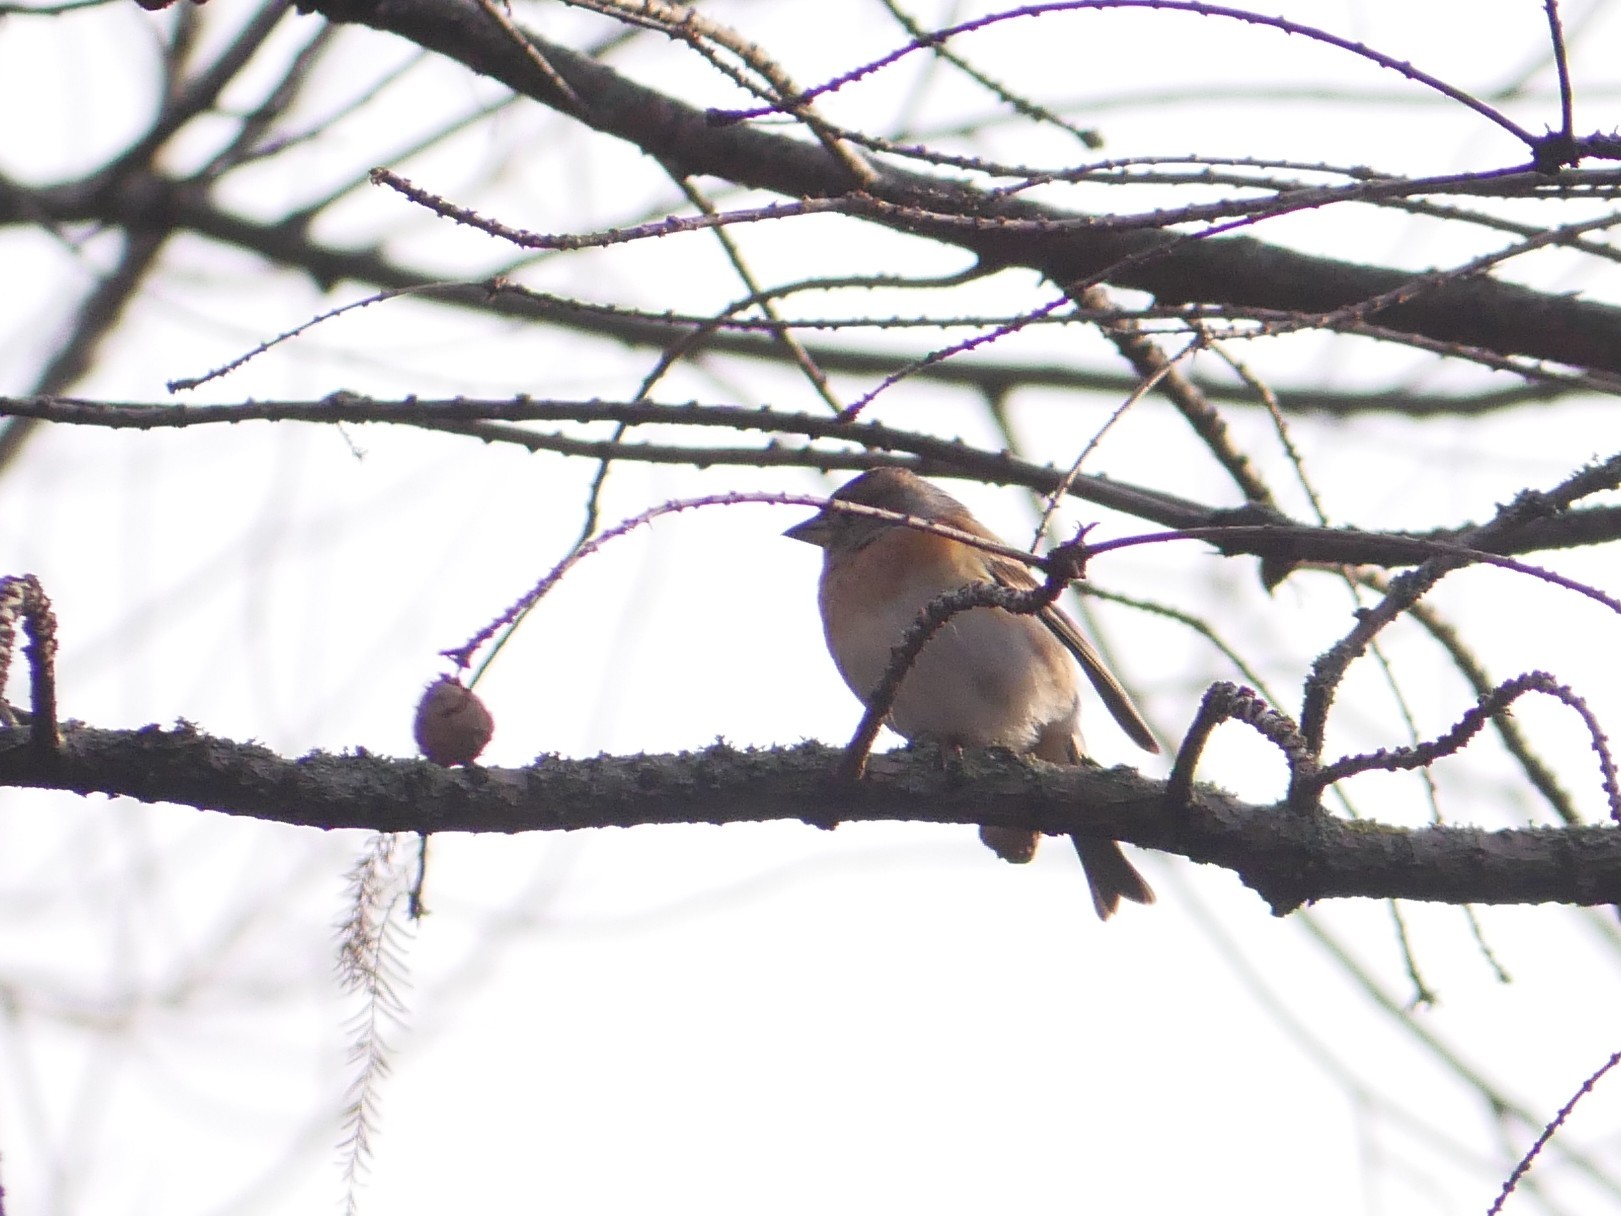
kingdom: Animalia
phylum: Chordata
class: Aves
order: Passeriformes
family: Fringillidae
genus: Fringilla
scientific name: Fringilla montifringilla
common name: Brambling
